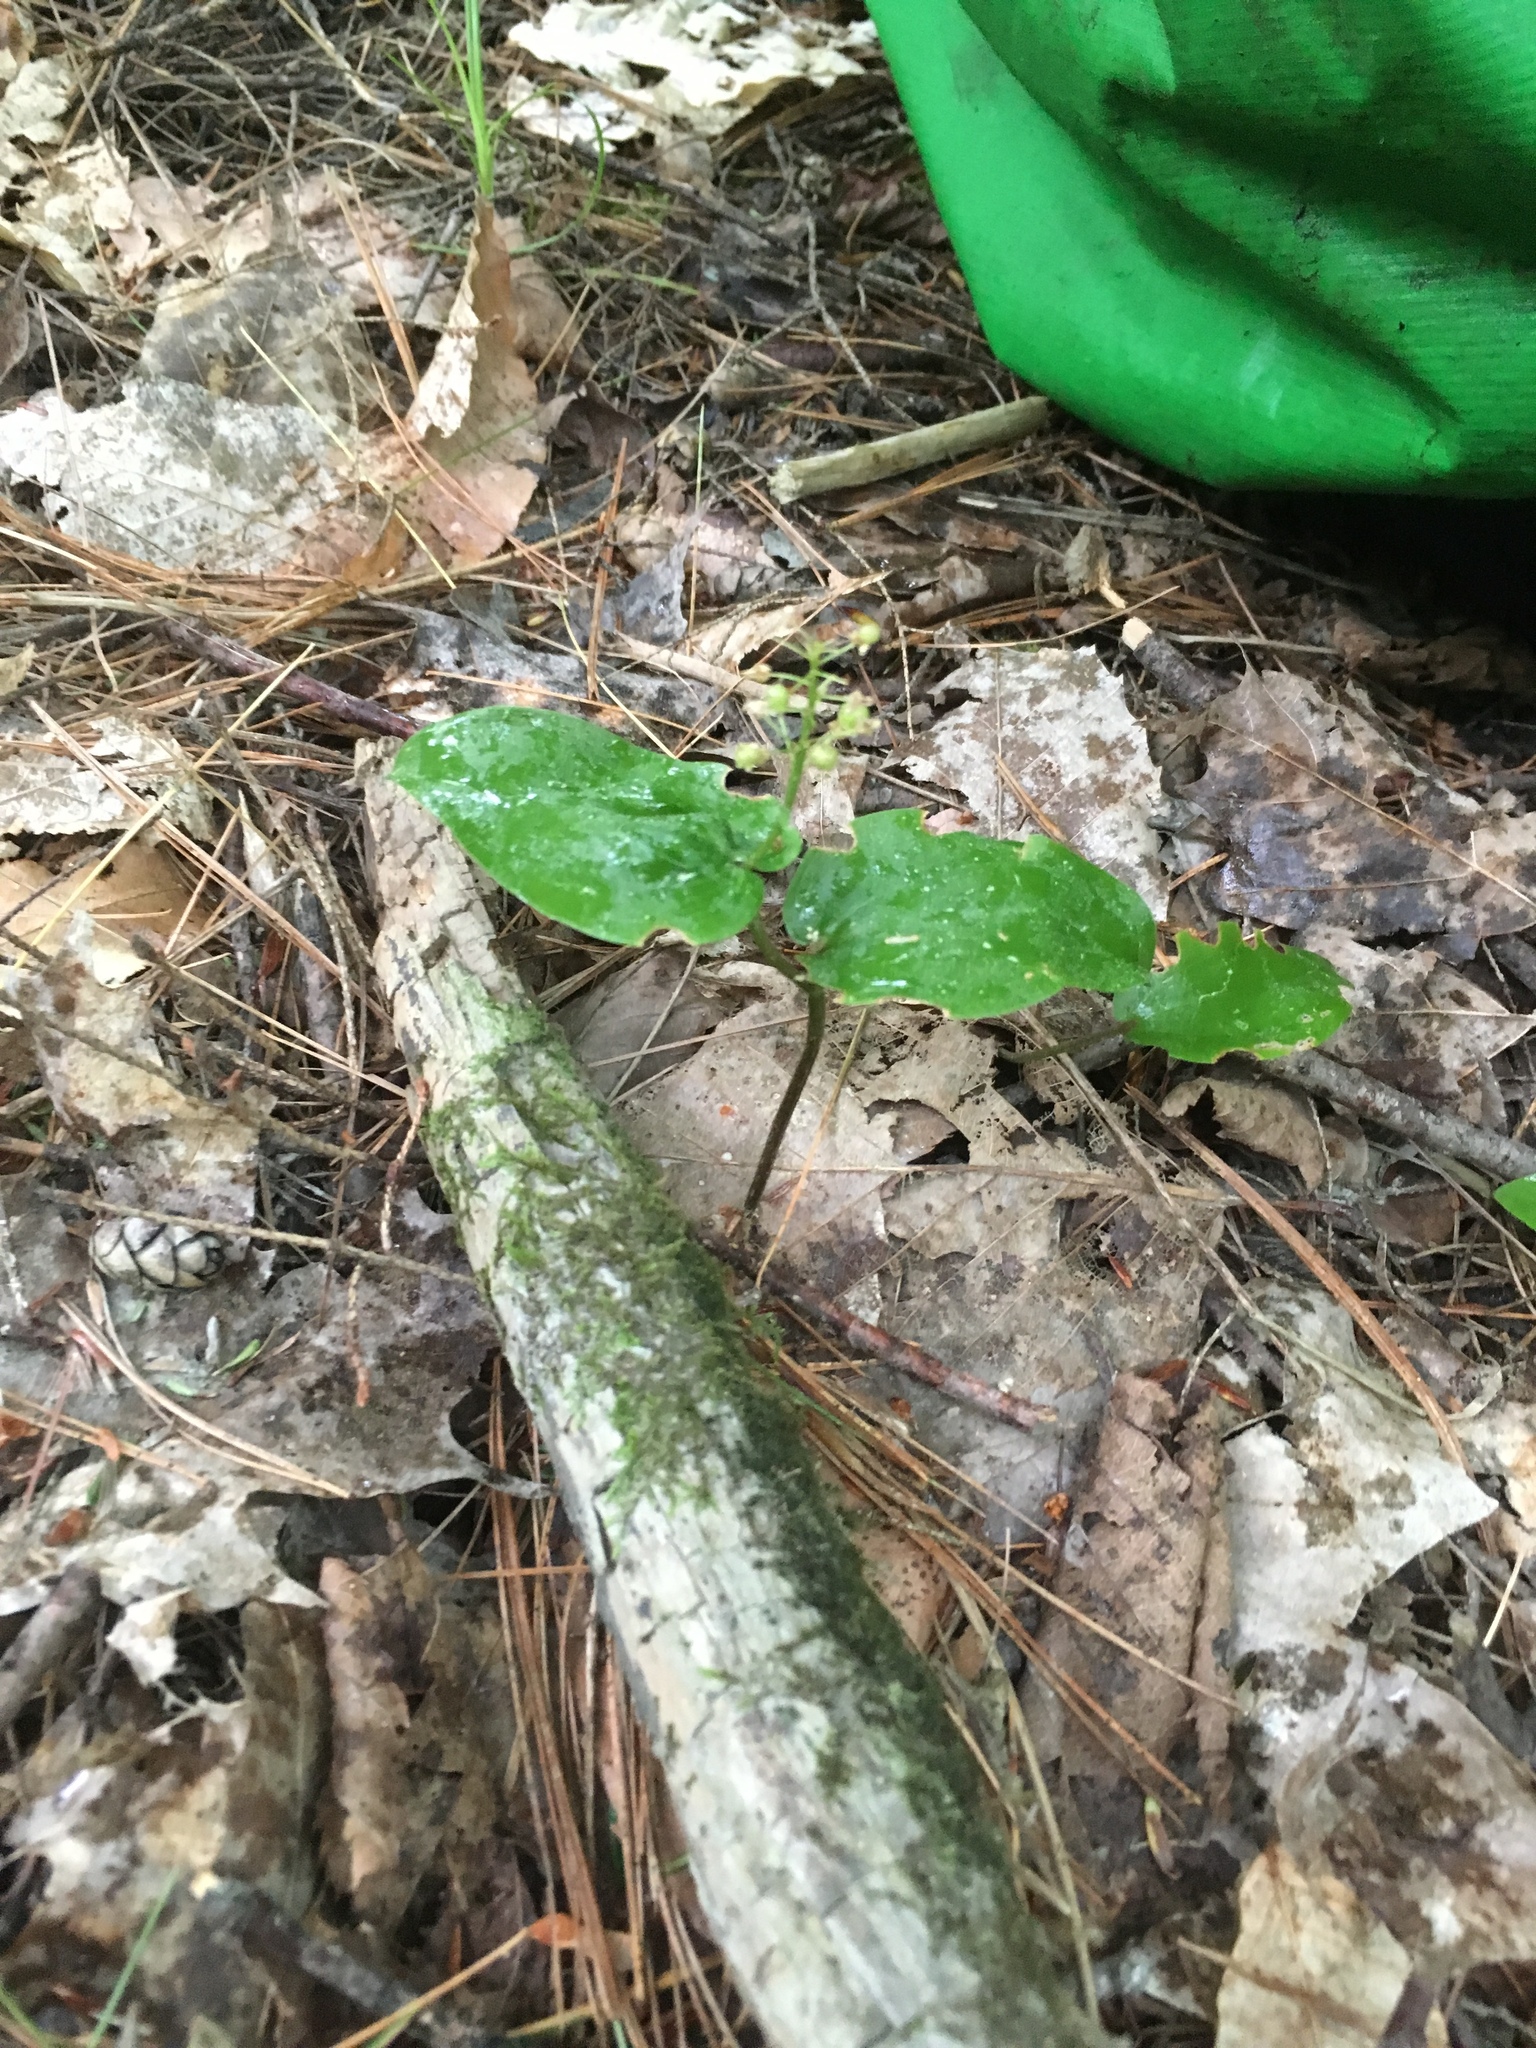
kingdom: Plantae
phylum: Tracheophyta
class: Liliopsida
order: Asparagales
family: Asparagaceae
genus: Maianthemum
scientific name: Maianthemum canadense
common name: False lily-of-the-valley
